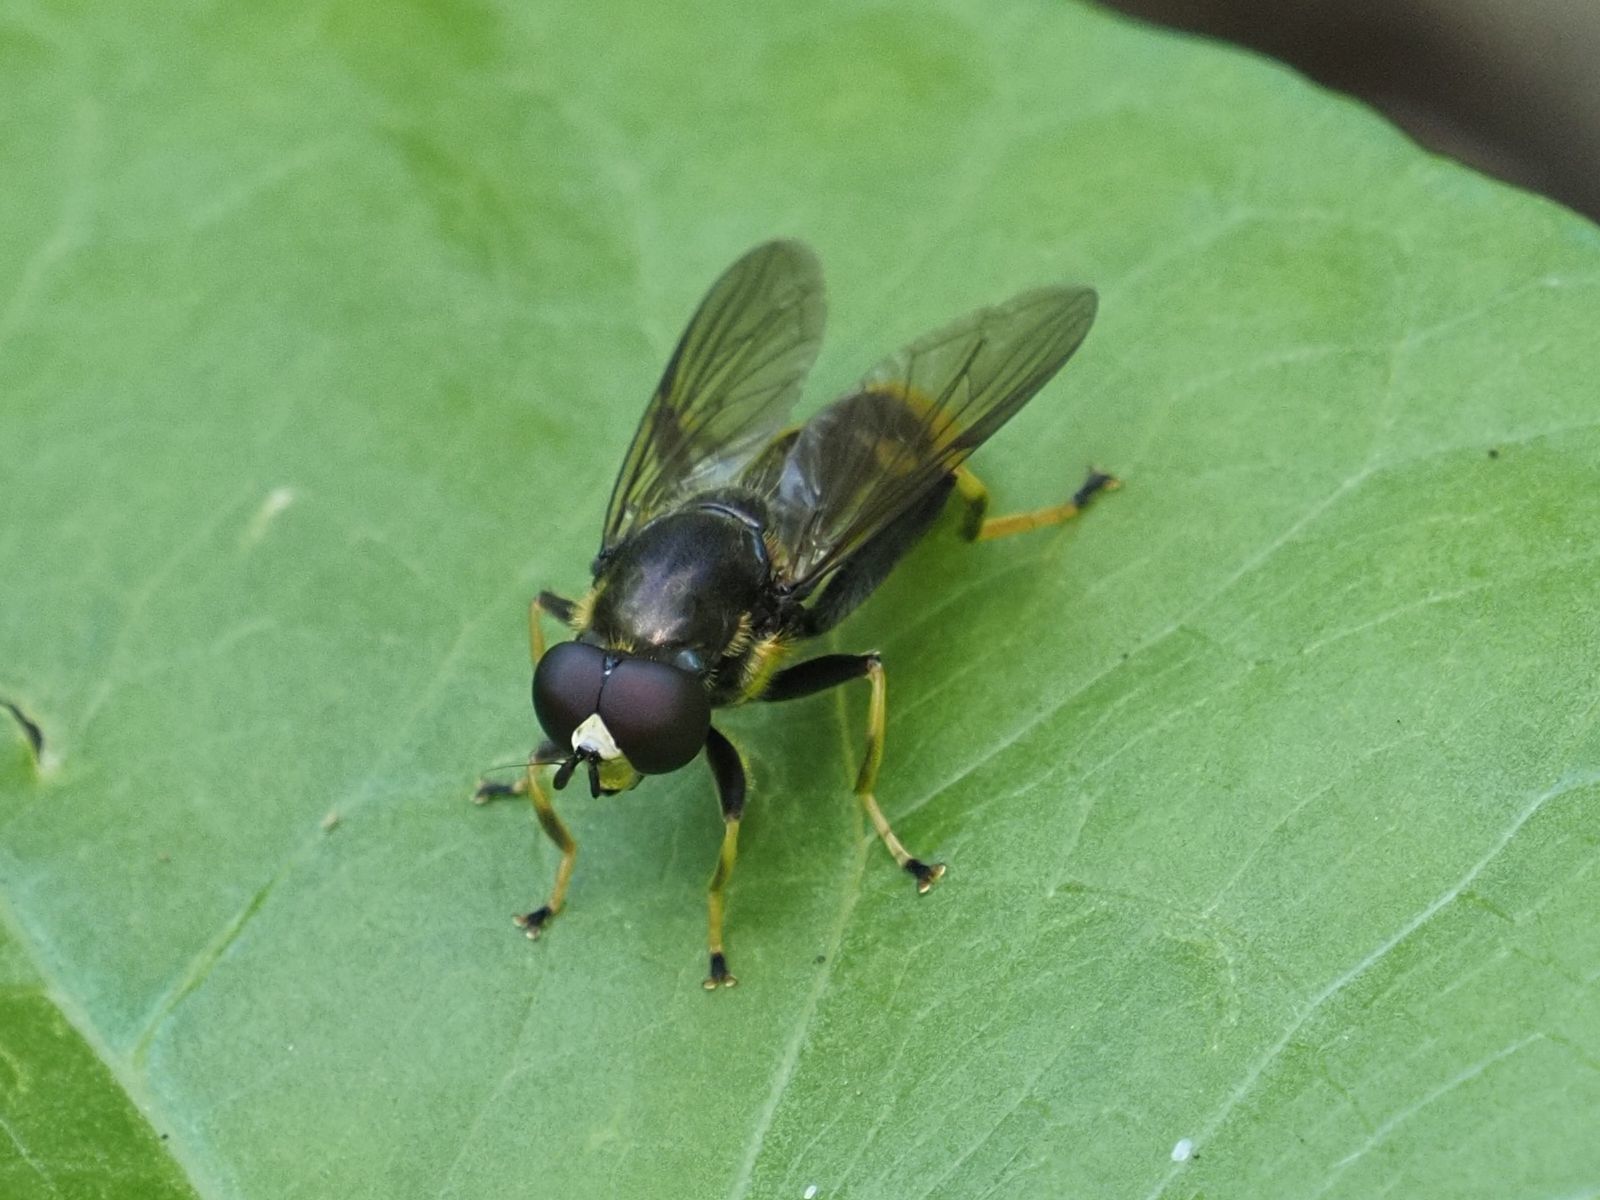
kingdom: Animalia
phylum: Arthropoda
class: Insecta
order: Diptera
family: Syrphidae
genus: Xylota
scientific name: Xylota sylvarum
